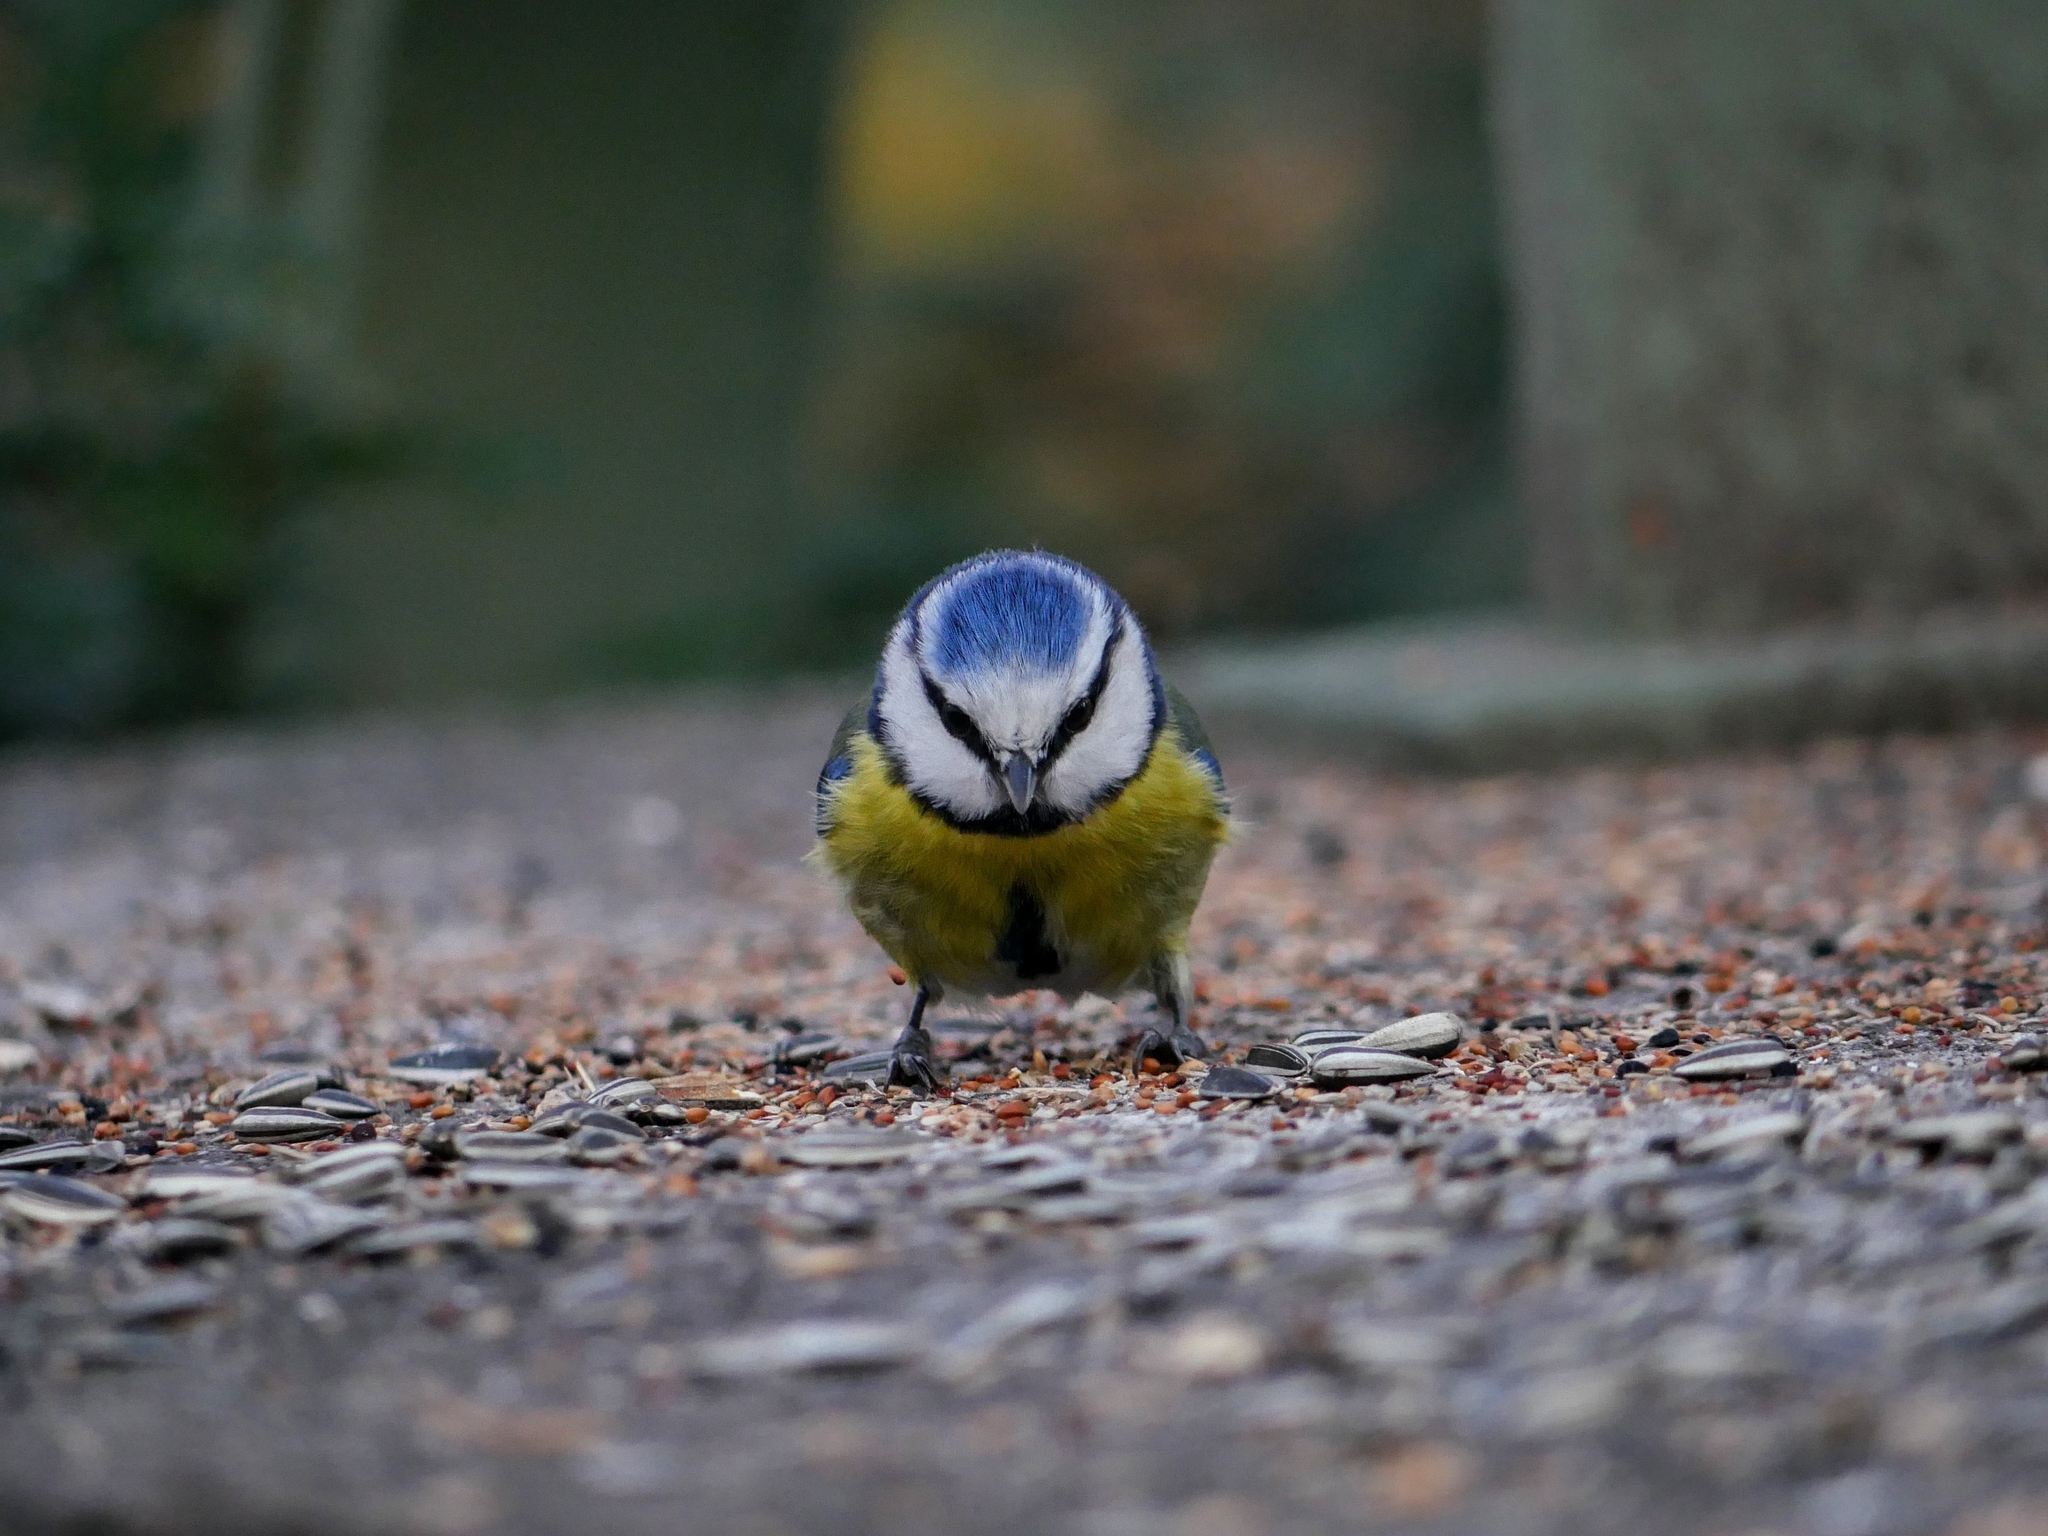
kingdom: Animalia
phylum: Chordata
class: Aves
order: Passeriformes
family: Paridae
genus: Cyanistes
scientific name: Cyanistes caeruleus
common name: Eurasian blue tit
